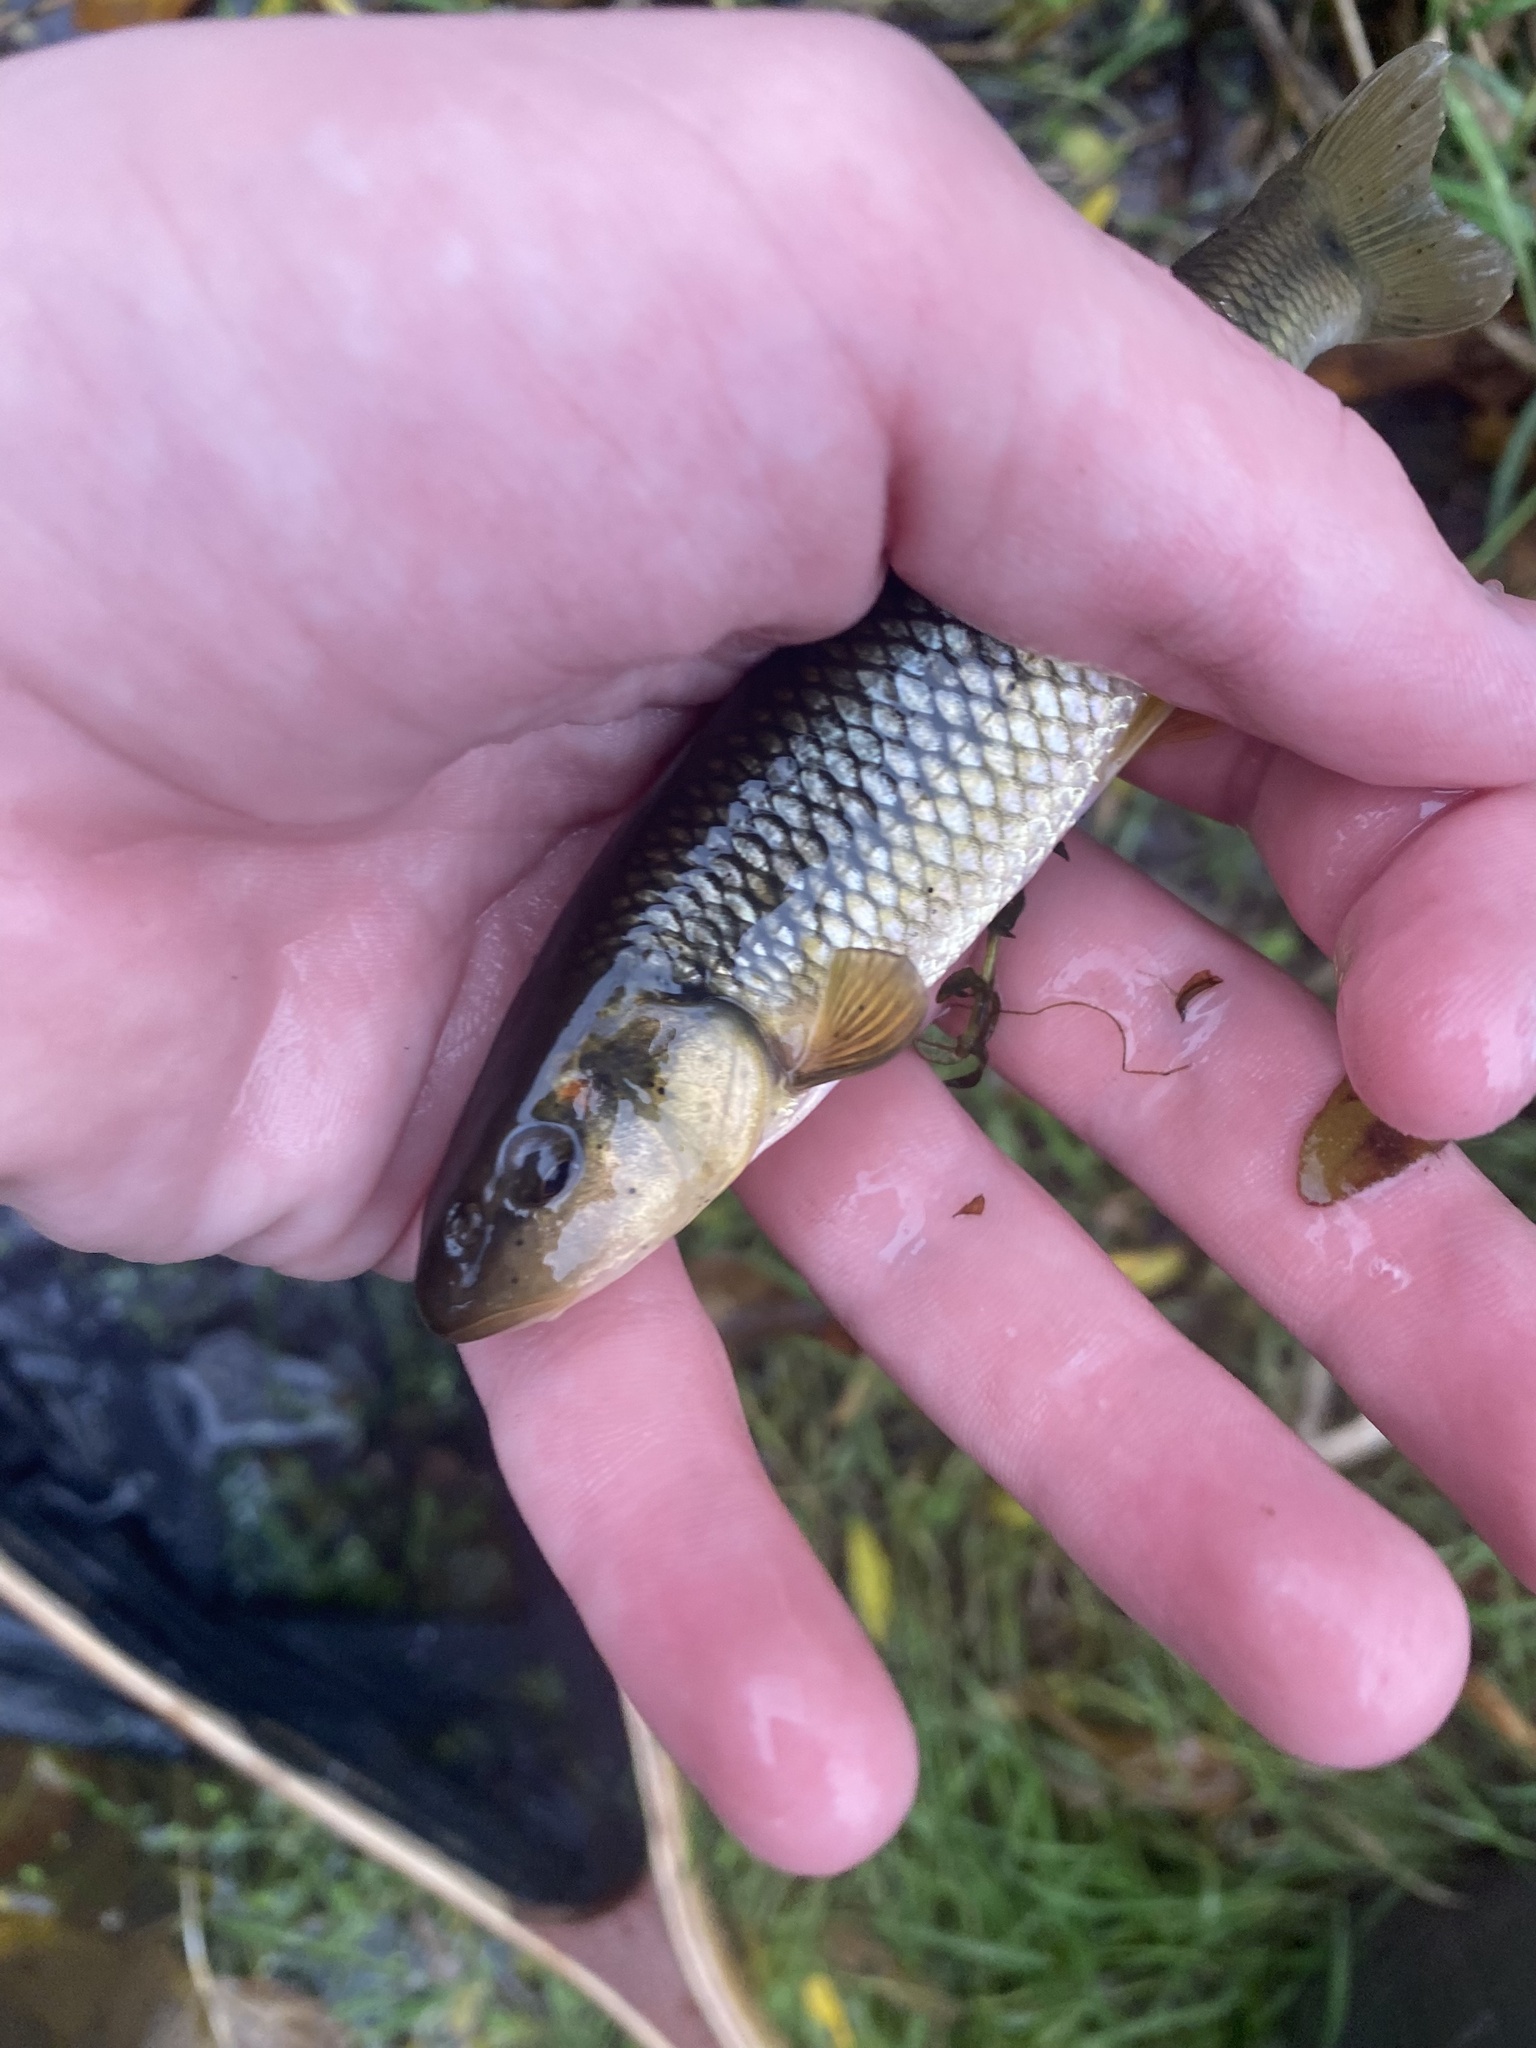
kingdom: Animalia
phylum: Chordata
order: Cypriniformes
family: Cyprinidae
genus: Nocomis
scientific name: Nocomis biguttatus
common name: Hornyhead chub
